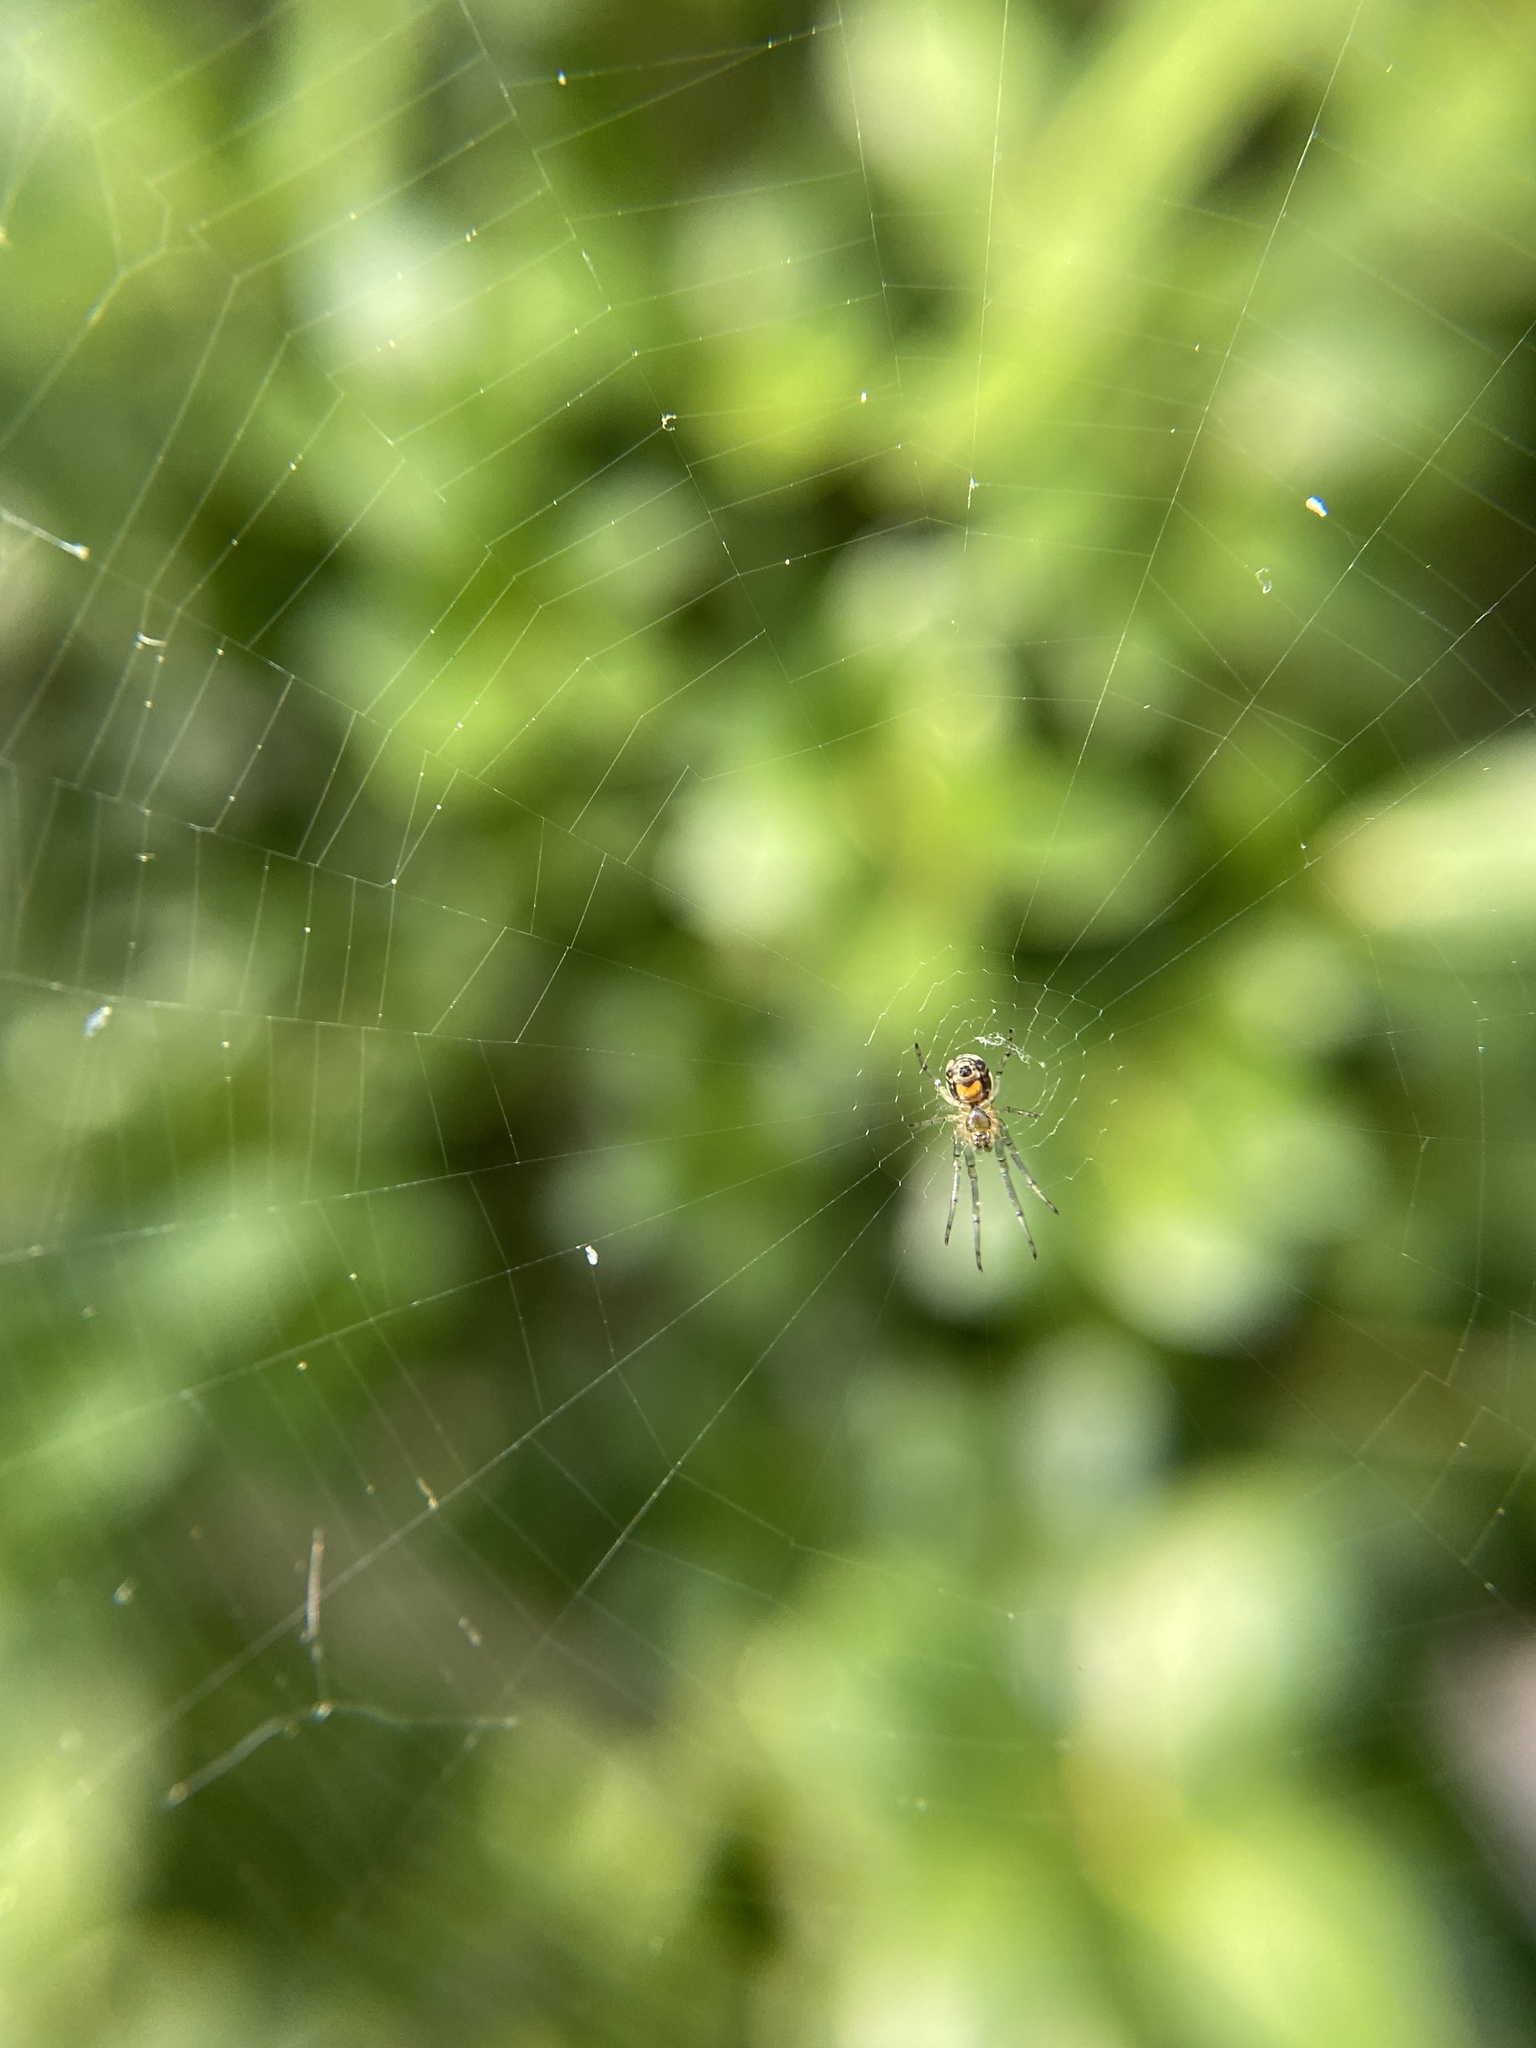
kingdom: Animalia
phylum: Arthropoda
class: Arachnida
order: Araneae
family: Tetragnathidae
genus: Leucauge
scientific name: Leucauge venusta
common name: Longjawed orb weavers
